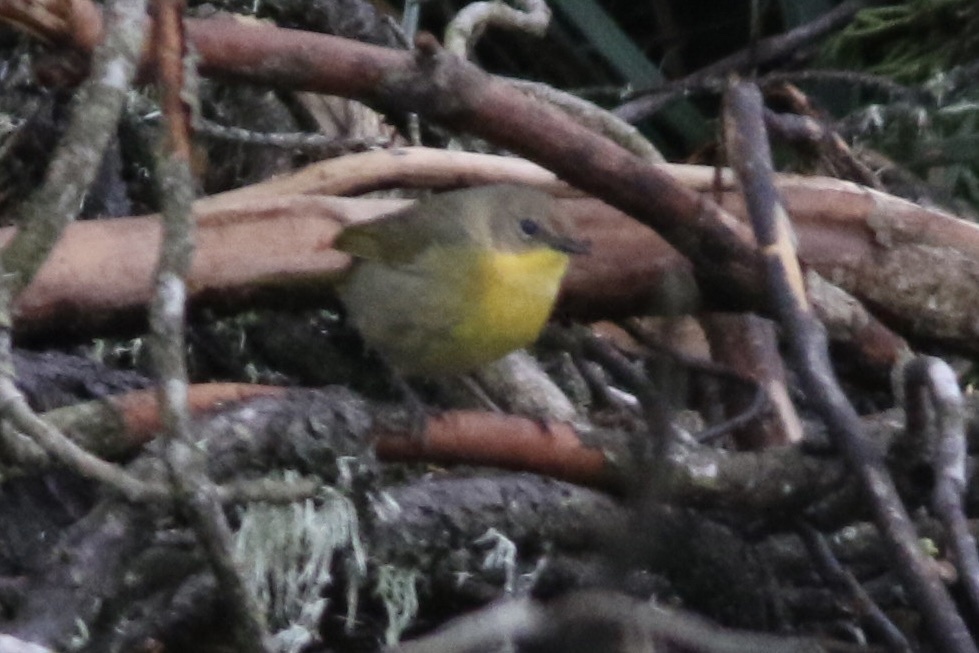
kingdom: Animalia
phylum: Chordata
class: Aves
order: Passeriformes
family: Parulidae
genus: Geothlypis
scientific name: Geothlypis trichas
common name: Common yellowthroat
